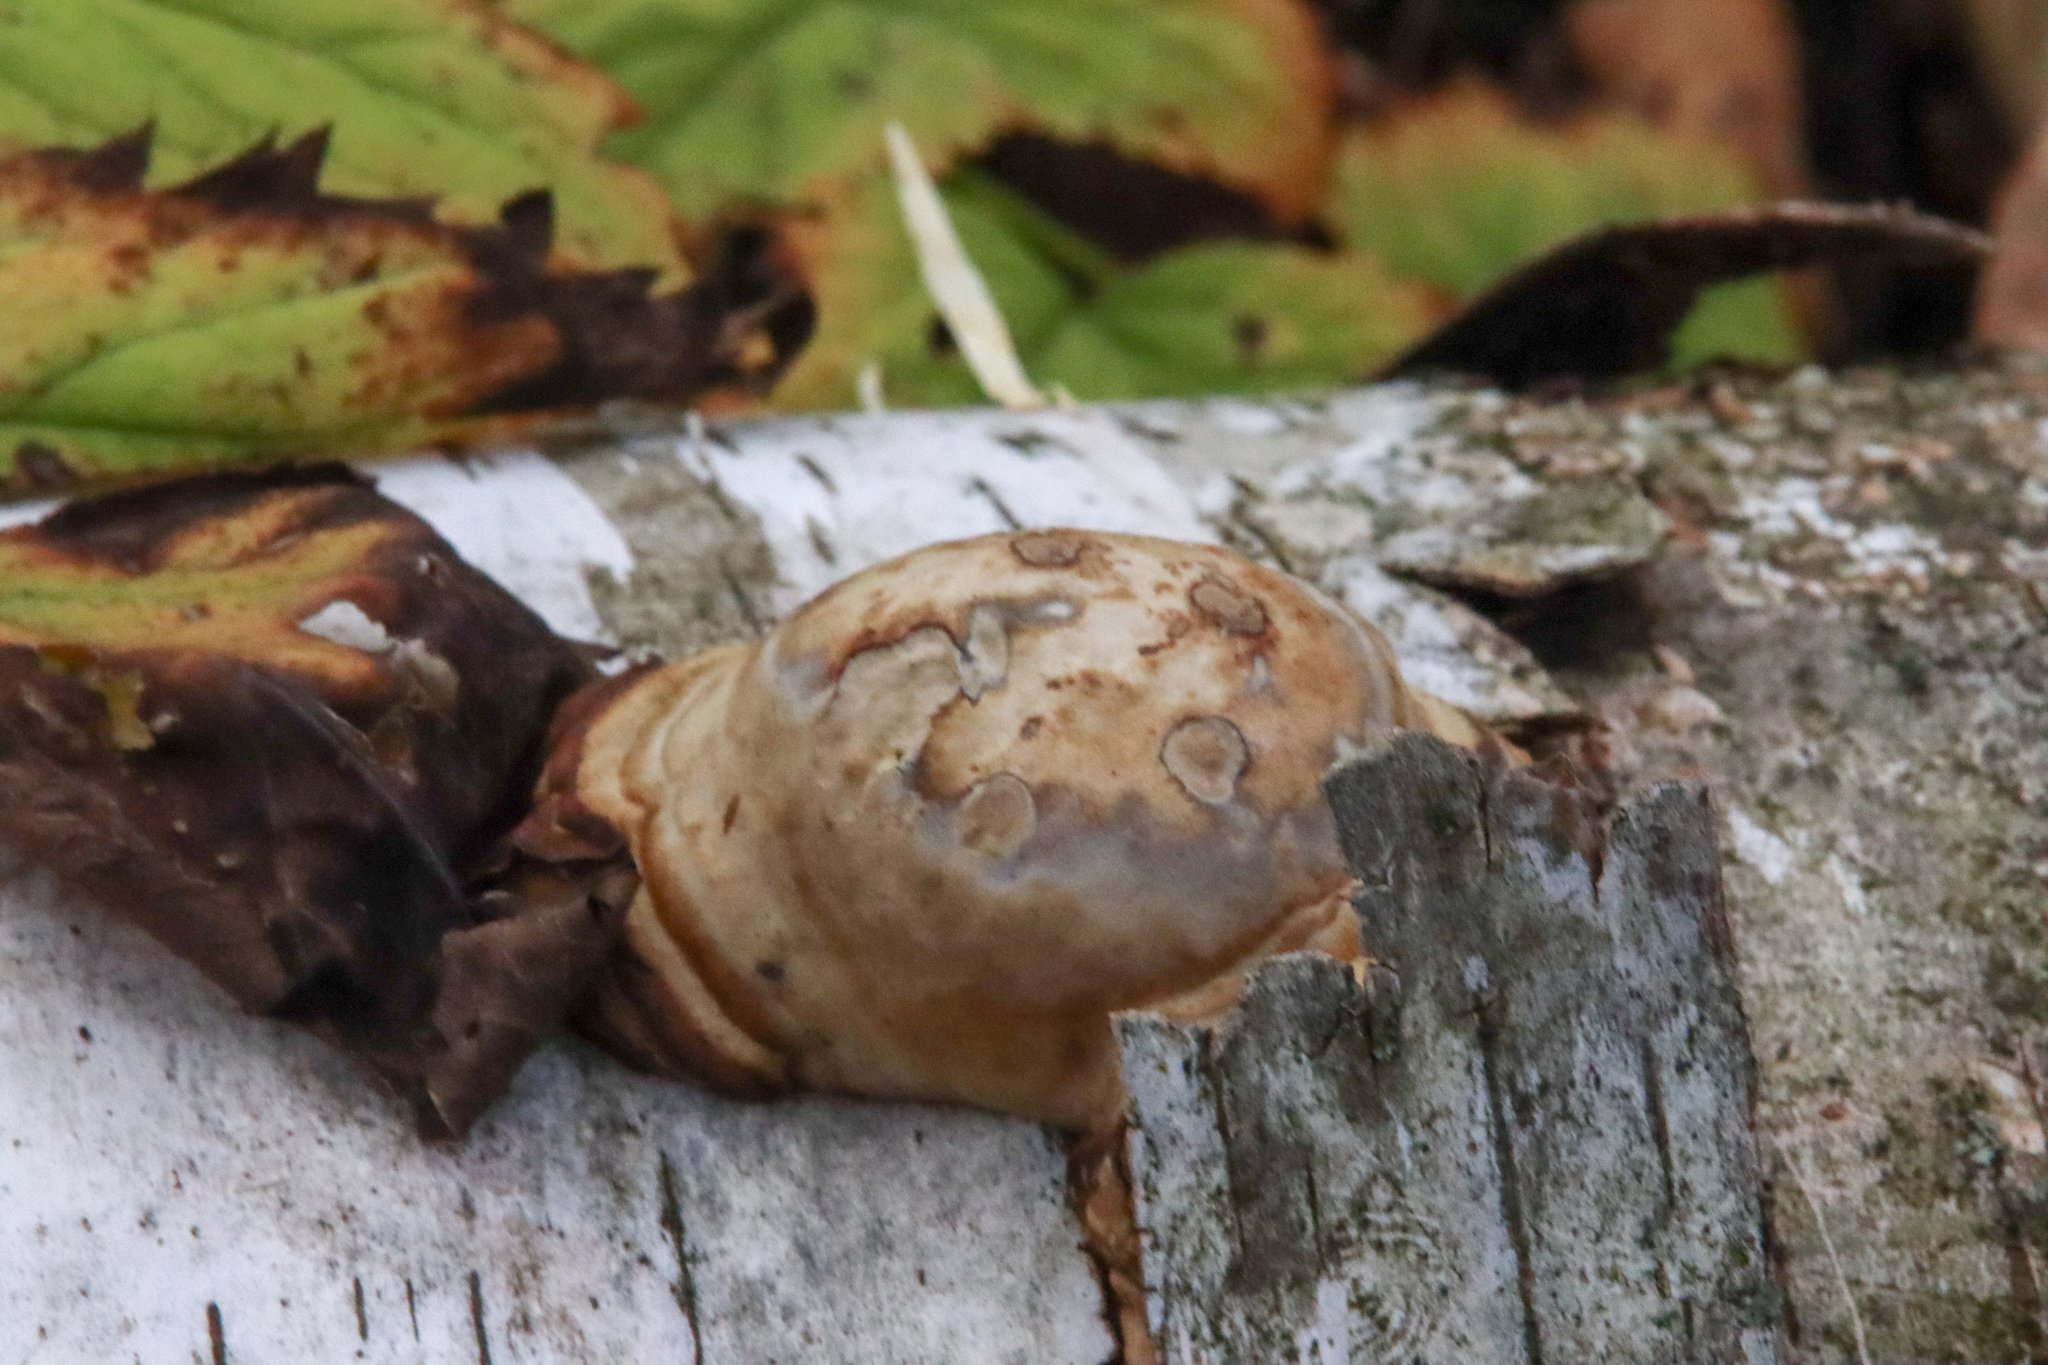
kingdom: Fungi
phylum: Basidiomycota
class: Agaricomycetes
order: Polyporales
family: Polyporaceae
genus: Fomes
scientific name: Fomes fomentarius
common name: Hoof fungus
